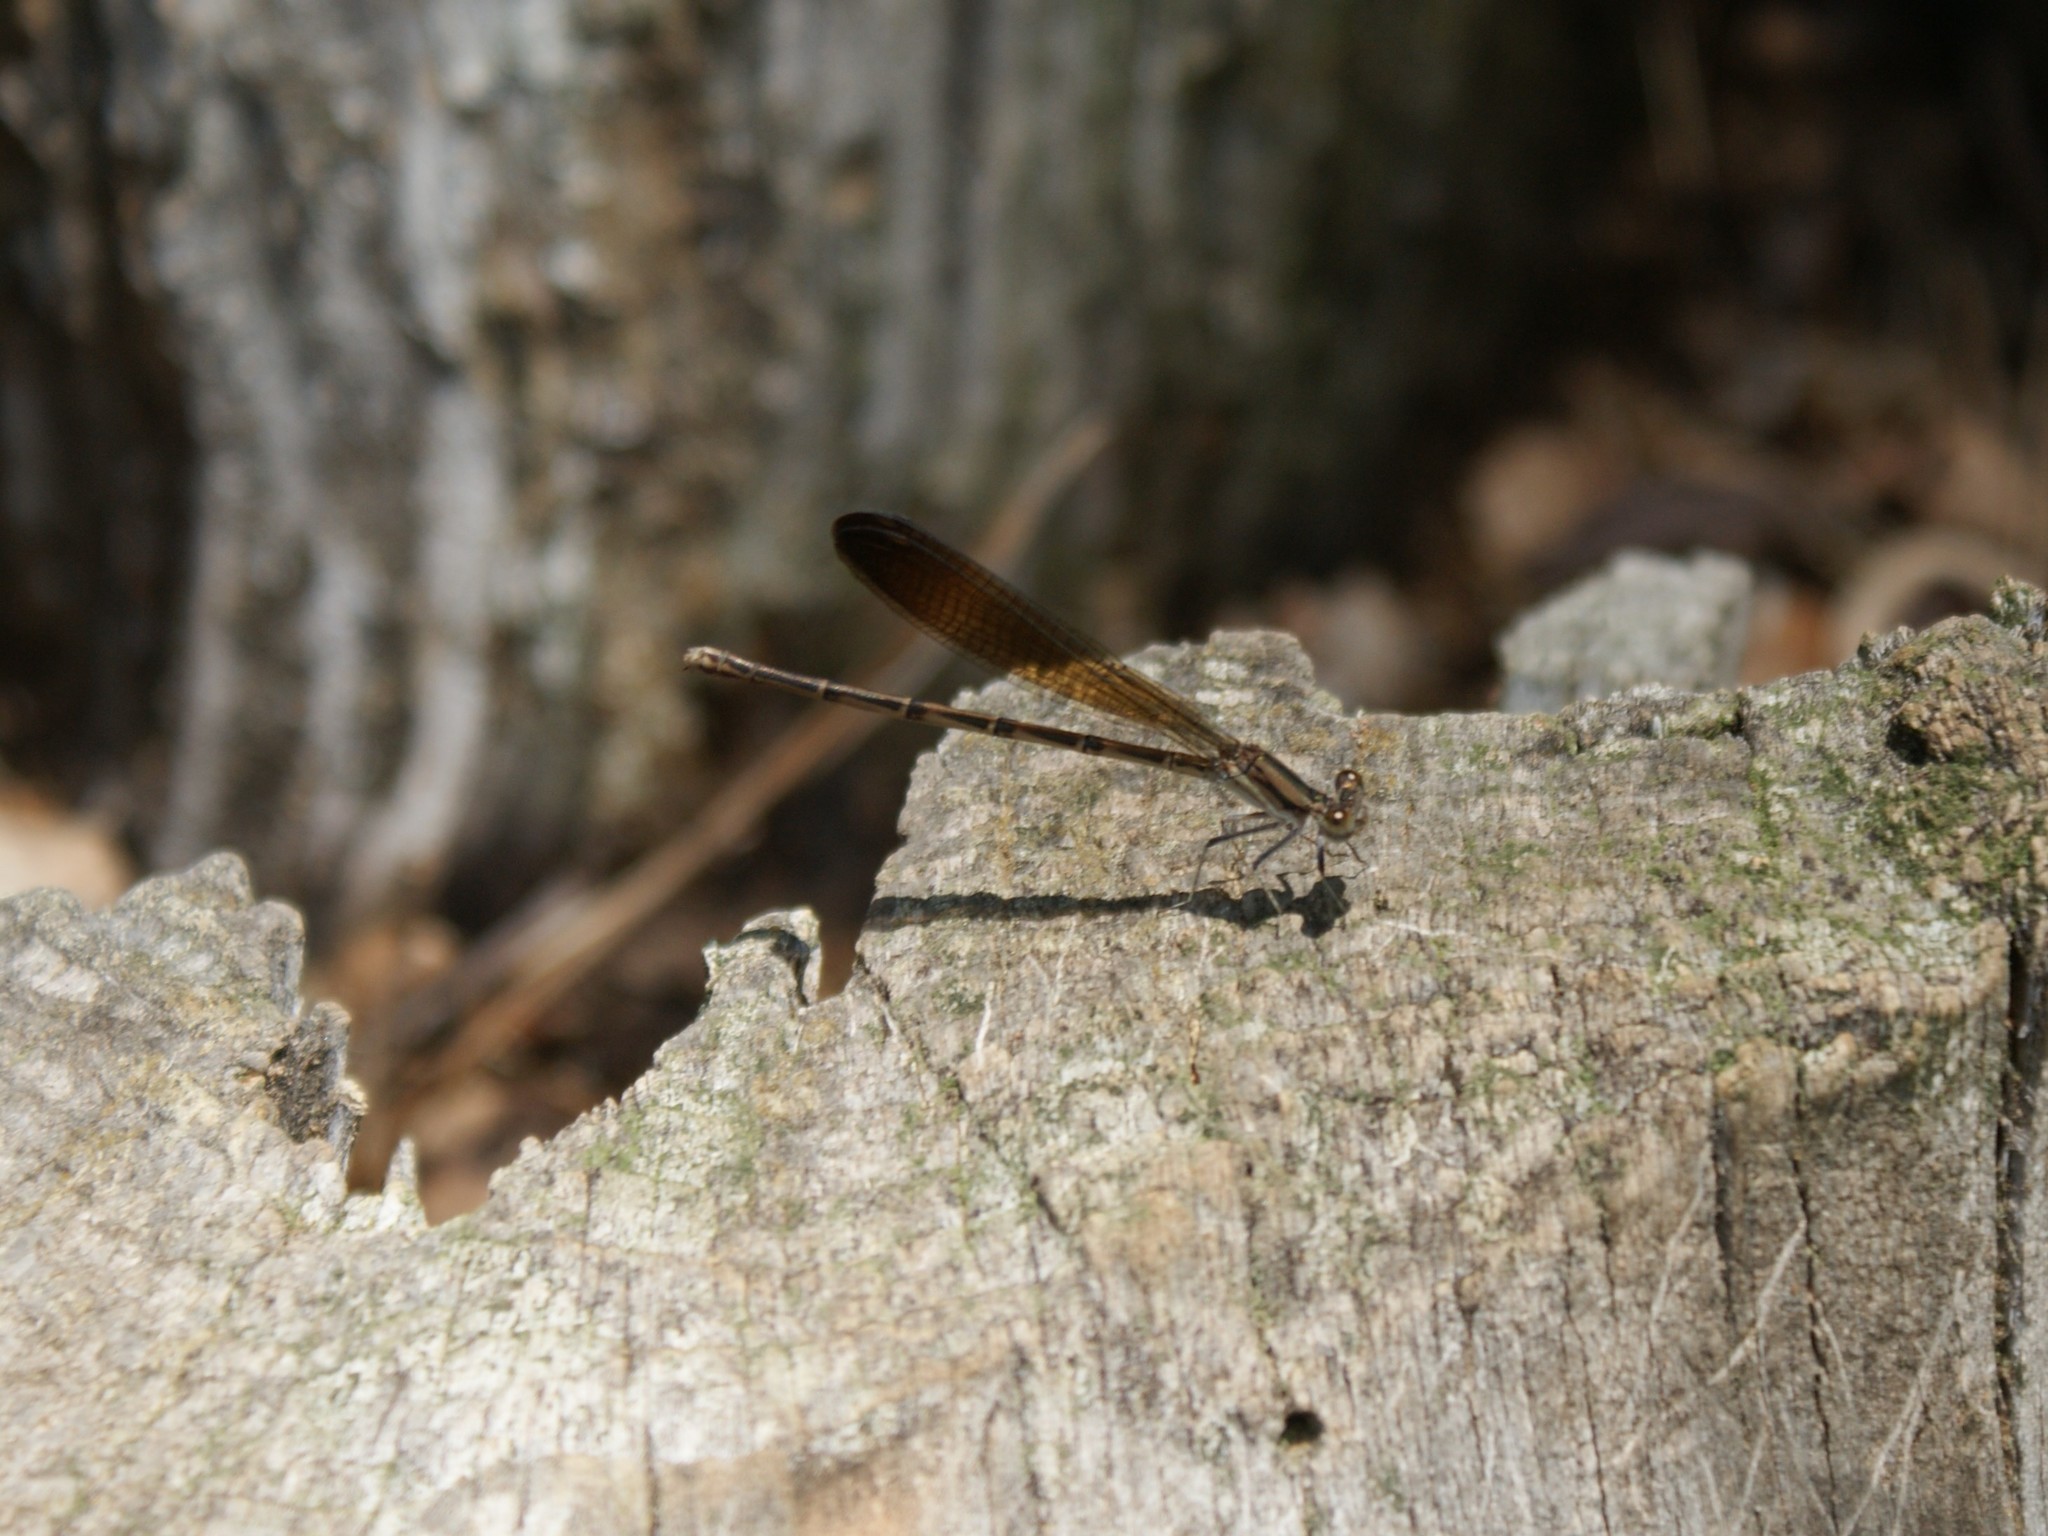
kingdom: Animalia
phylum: Arthropoda
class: Insecta
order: Odonata
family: Coenagrionidae
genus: Argia
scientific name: Argia fumipennis
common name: Variable dancer
